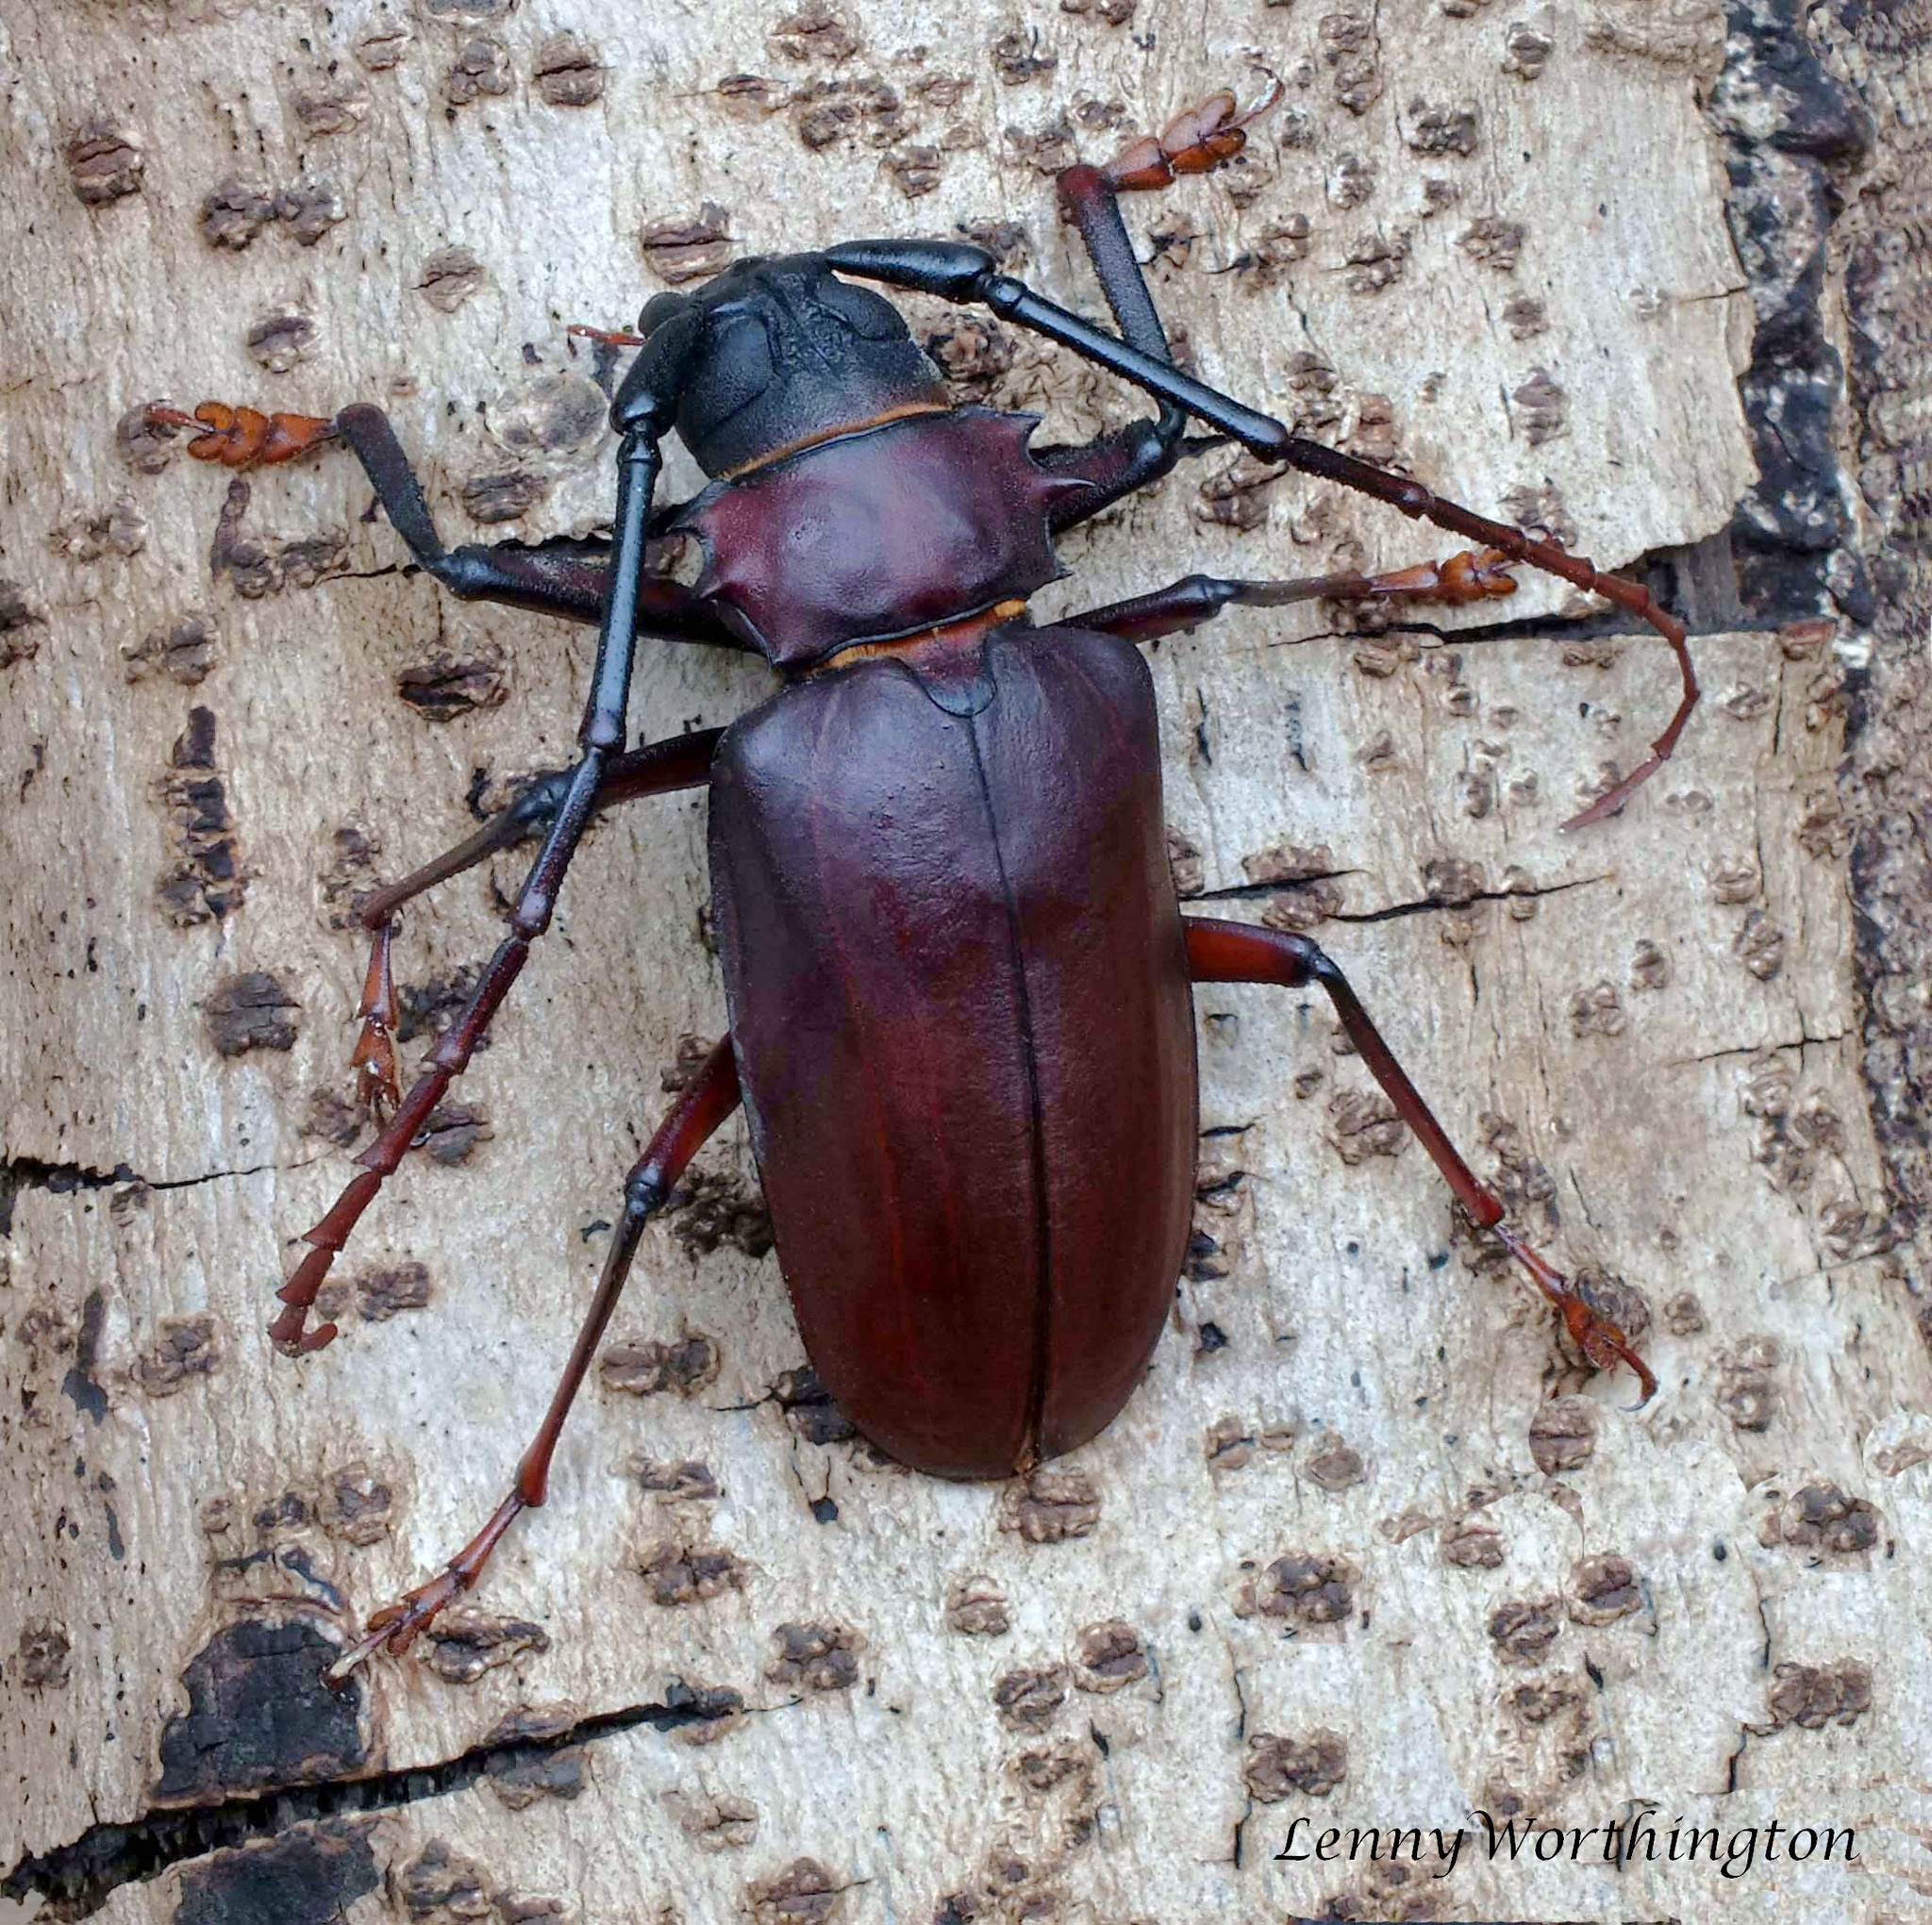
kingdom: Animalia
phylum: Arthropoda
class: Insecta
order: Coleoptera
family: Cerambycidae
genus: Dorysthenes
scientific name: Dorysthenes granulosus
